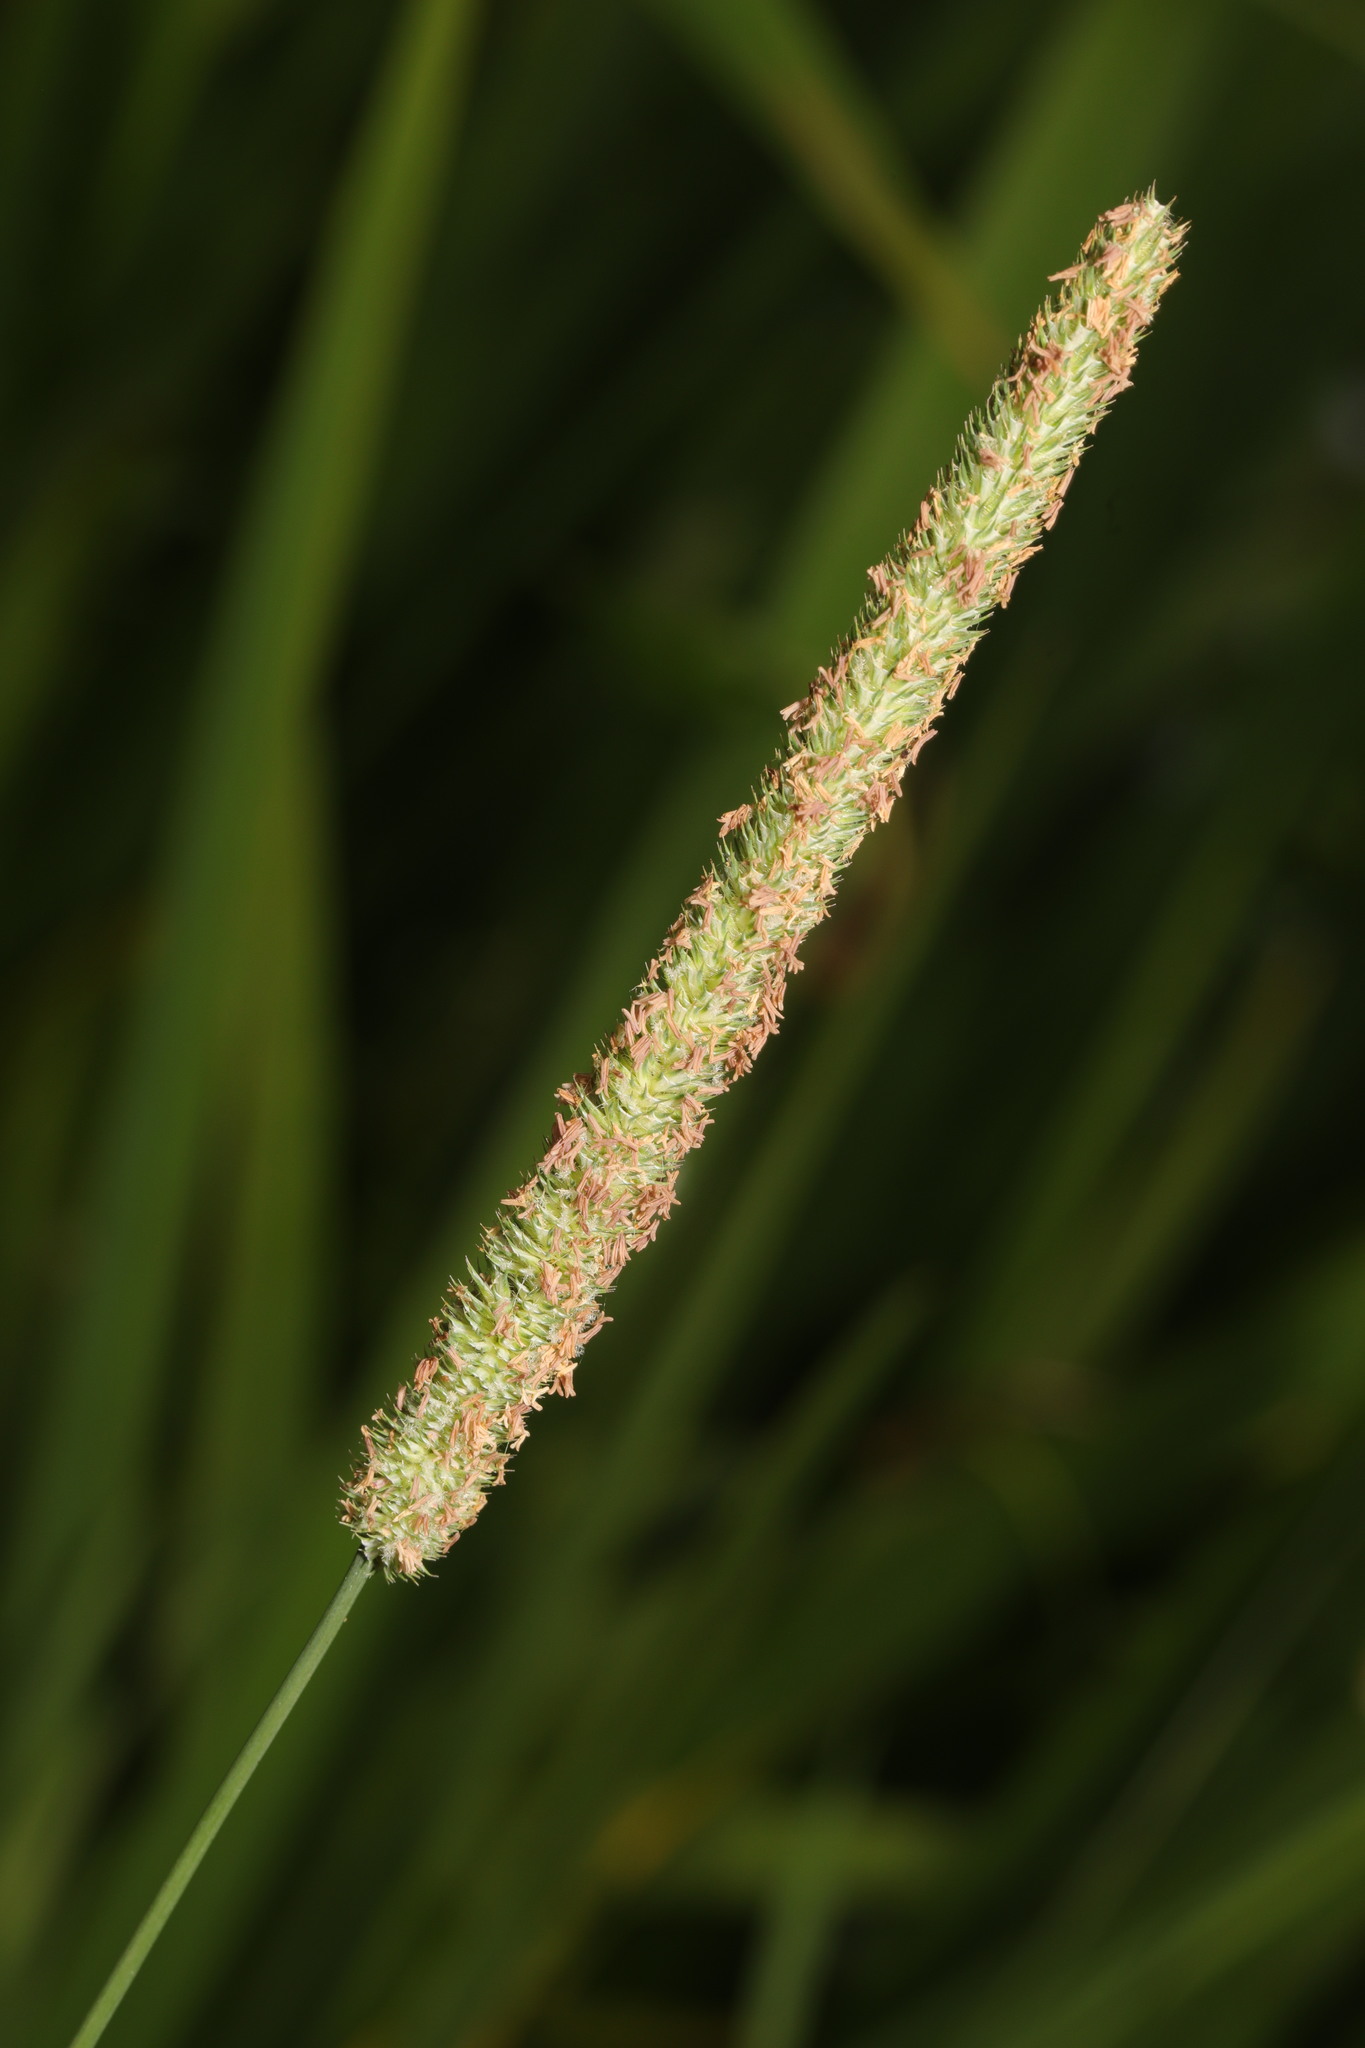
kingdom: Plantae
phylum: Tracheophyta
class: Liliopsida
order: Poales
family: Poaceae
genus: Phleum
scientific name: Phleum pratense
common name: Timothy grass
